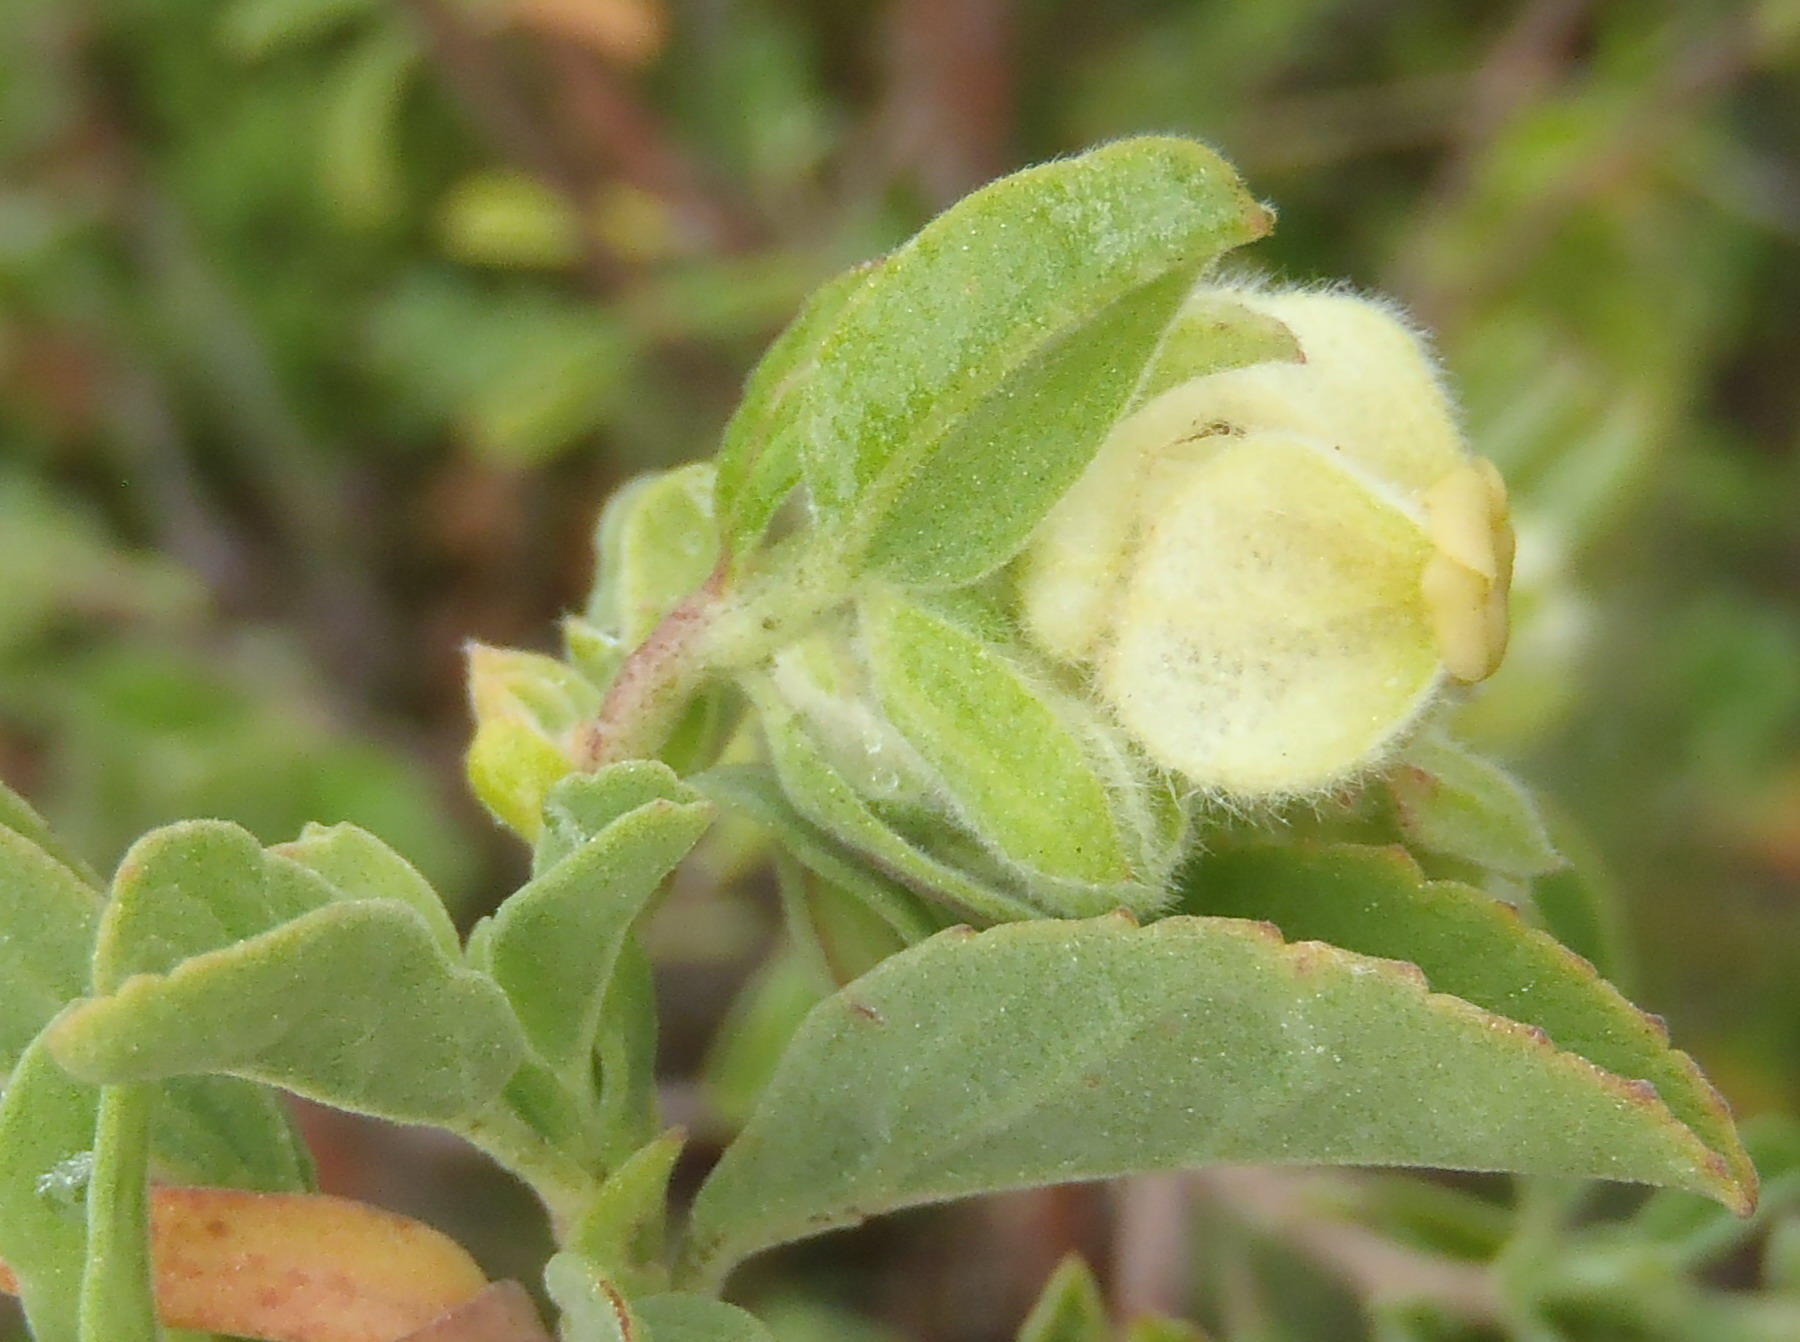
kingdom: Plantae
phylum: Tracheophyta
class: Magnoliopsida
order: Malvales
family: Malvaceae
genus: Hermannia
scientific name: Hermannia hyssopifolia
